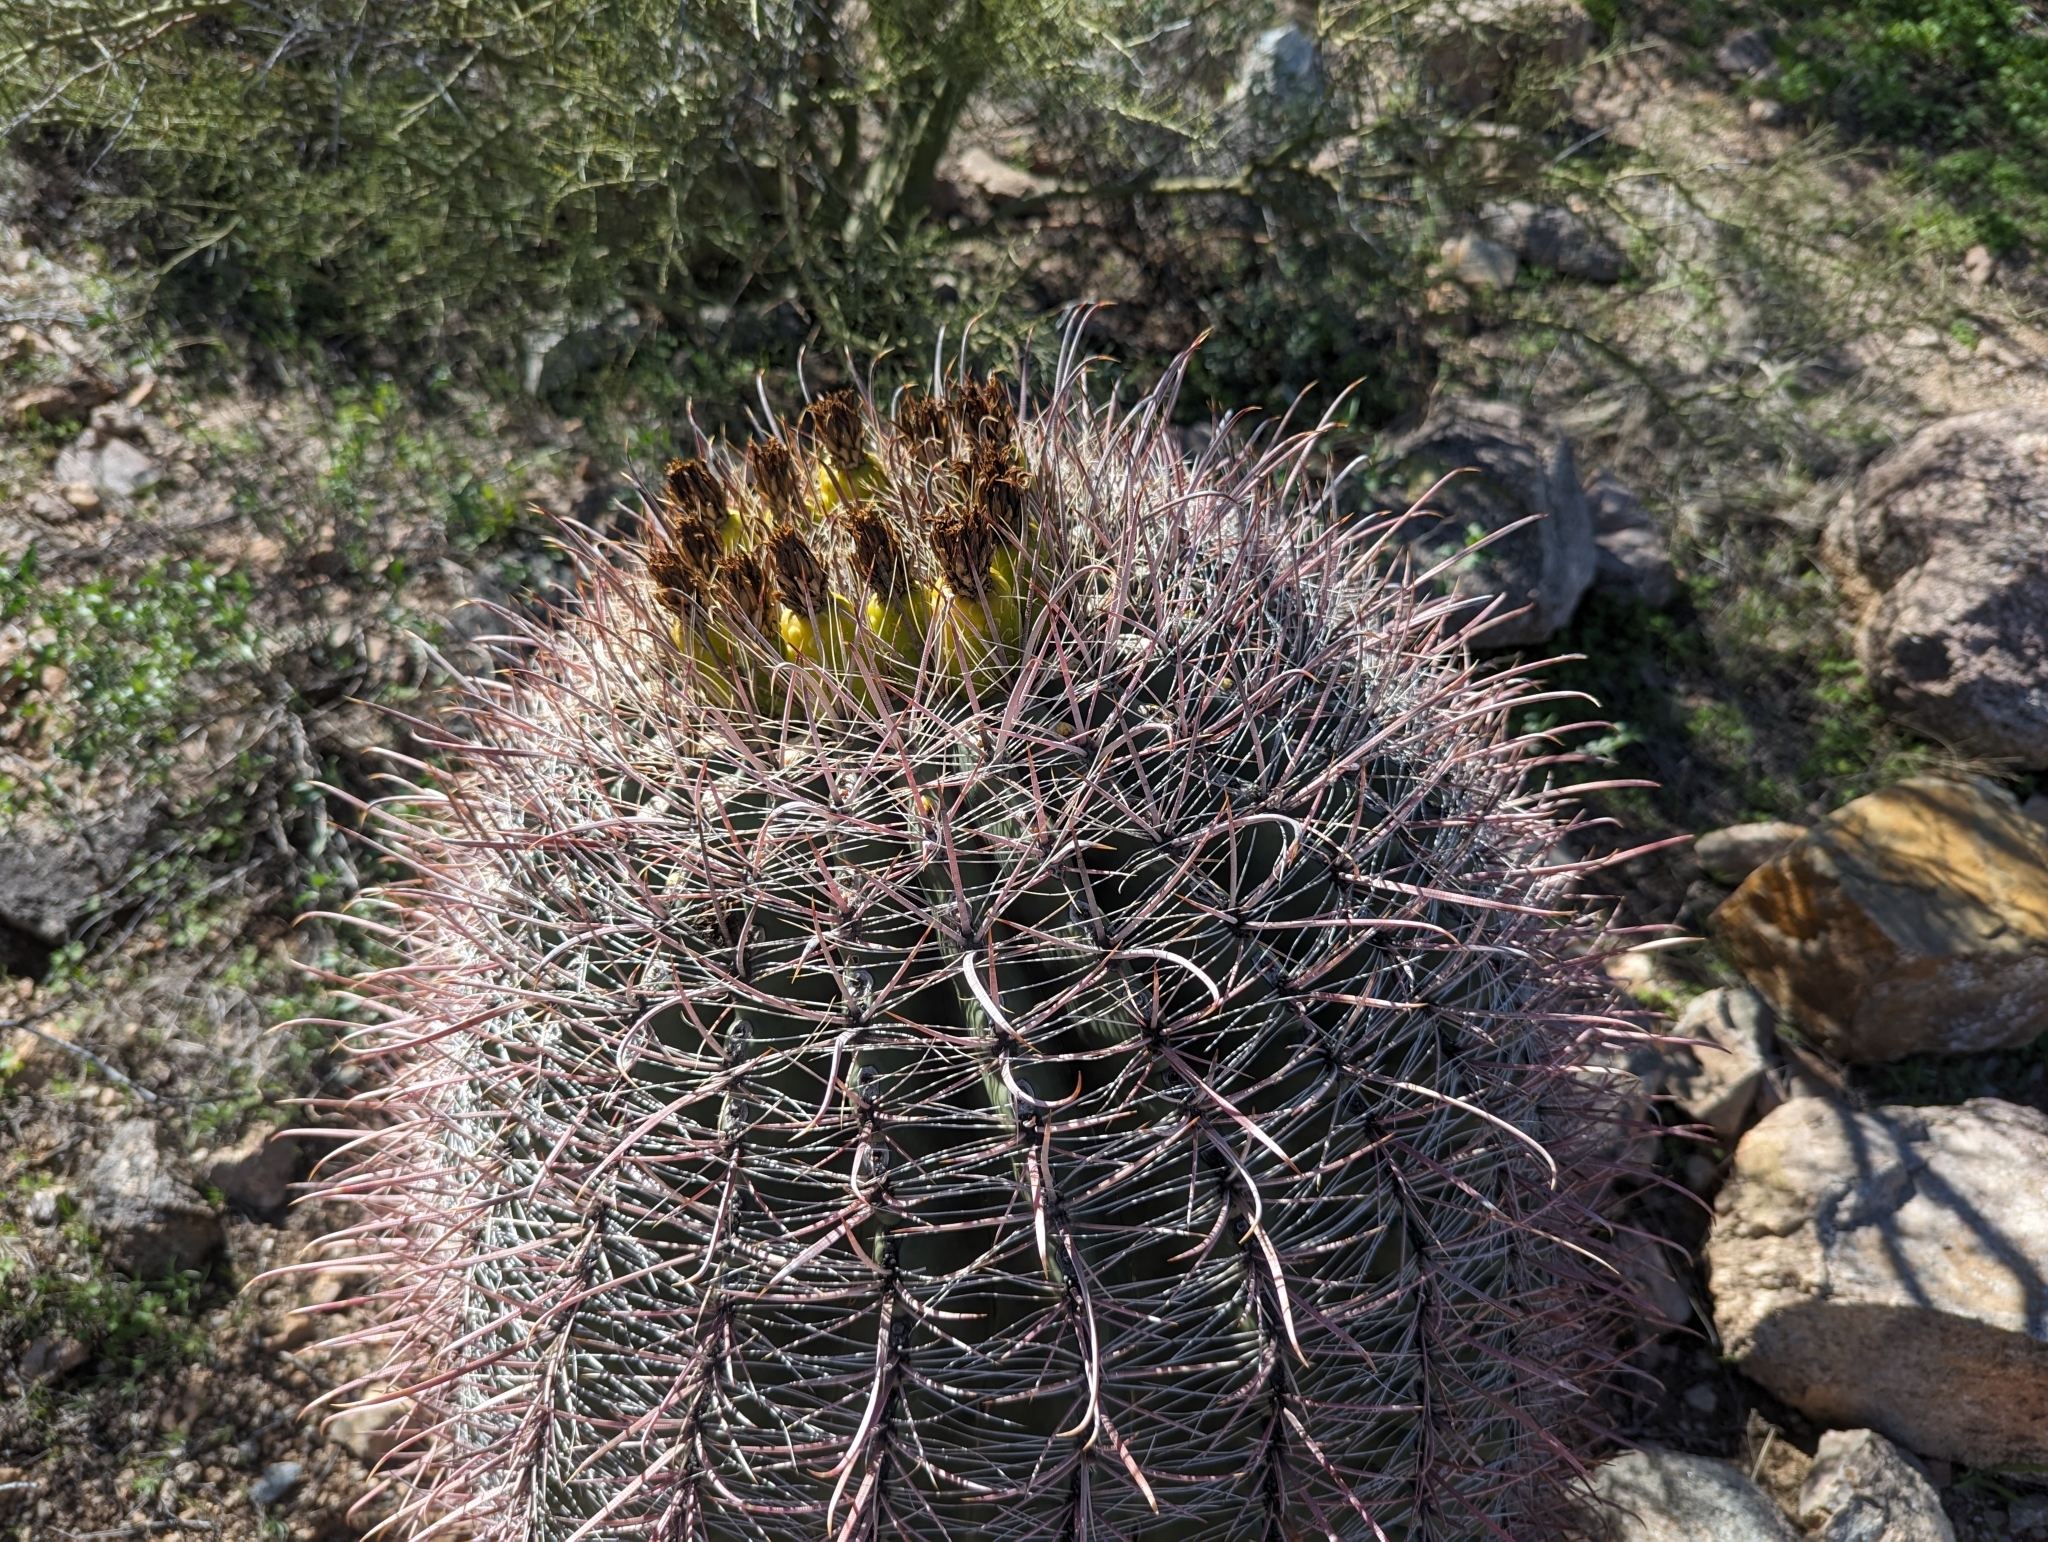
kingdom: Plantae
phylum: Tracheophyta
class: Magnoliopsida
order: Caryophyllales
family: Cactaceae
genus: Ferocactus
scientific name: Ferocactus wislizeni
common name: Candy barrel cactus
